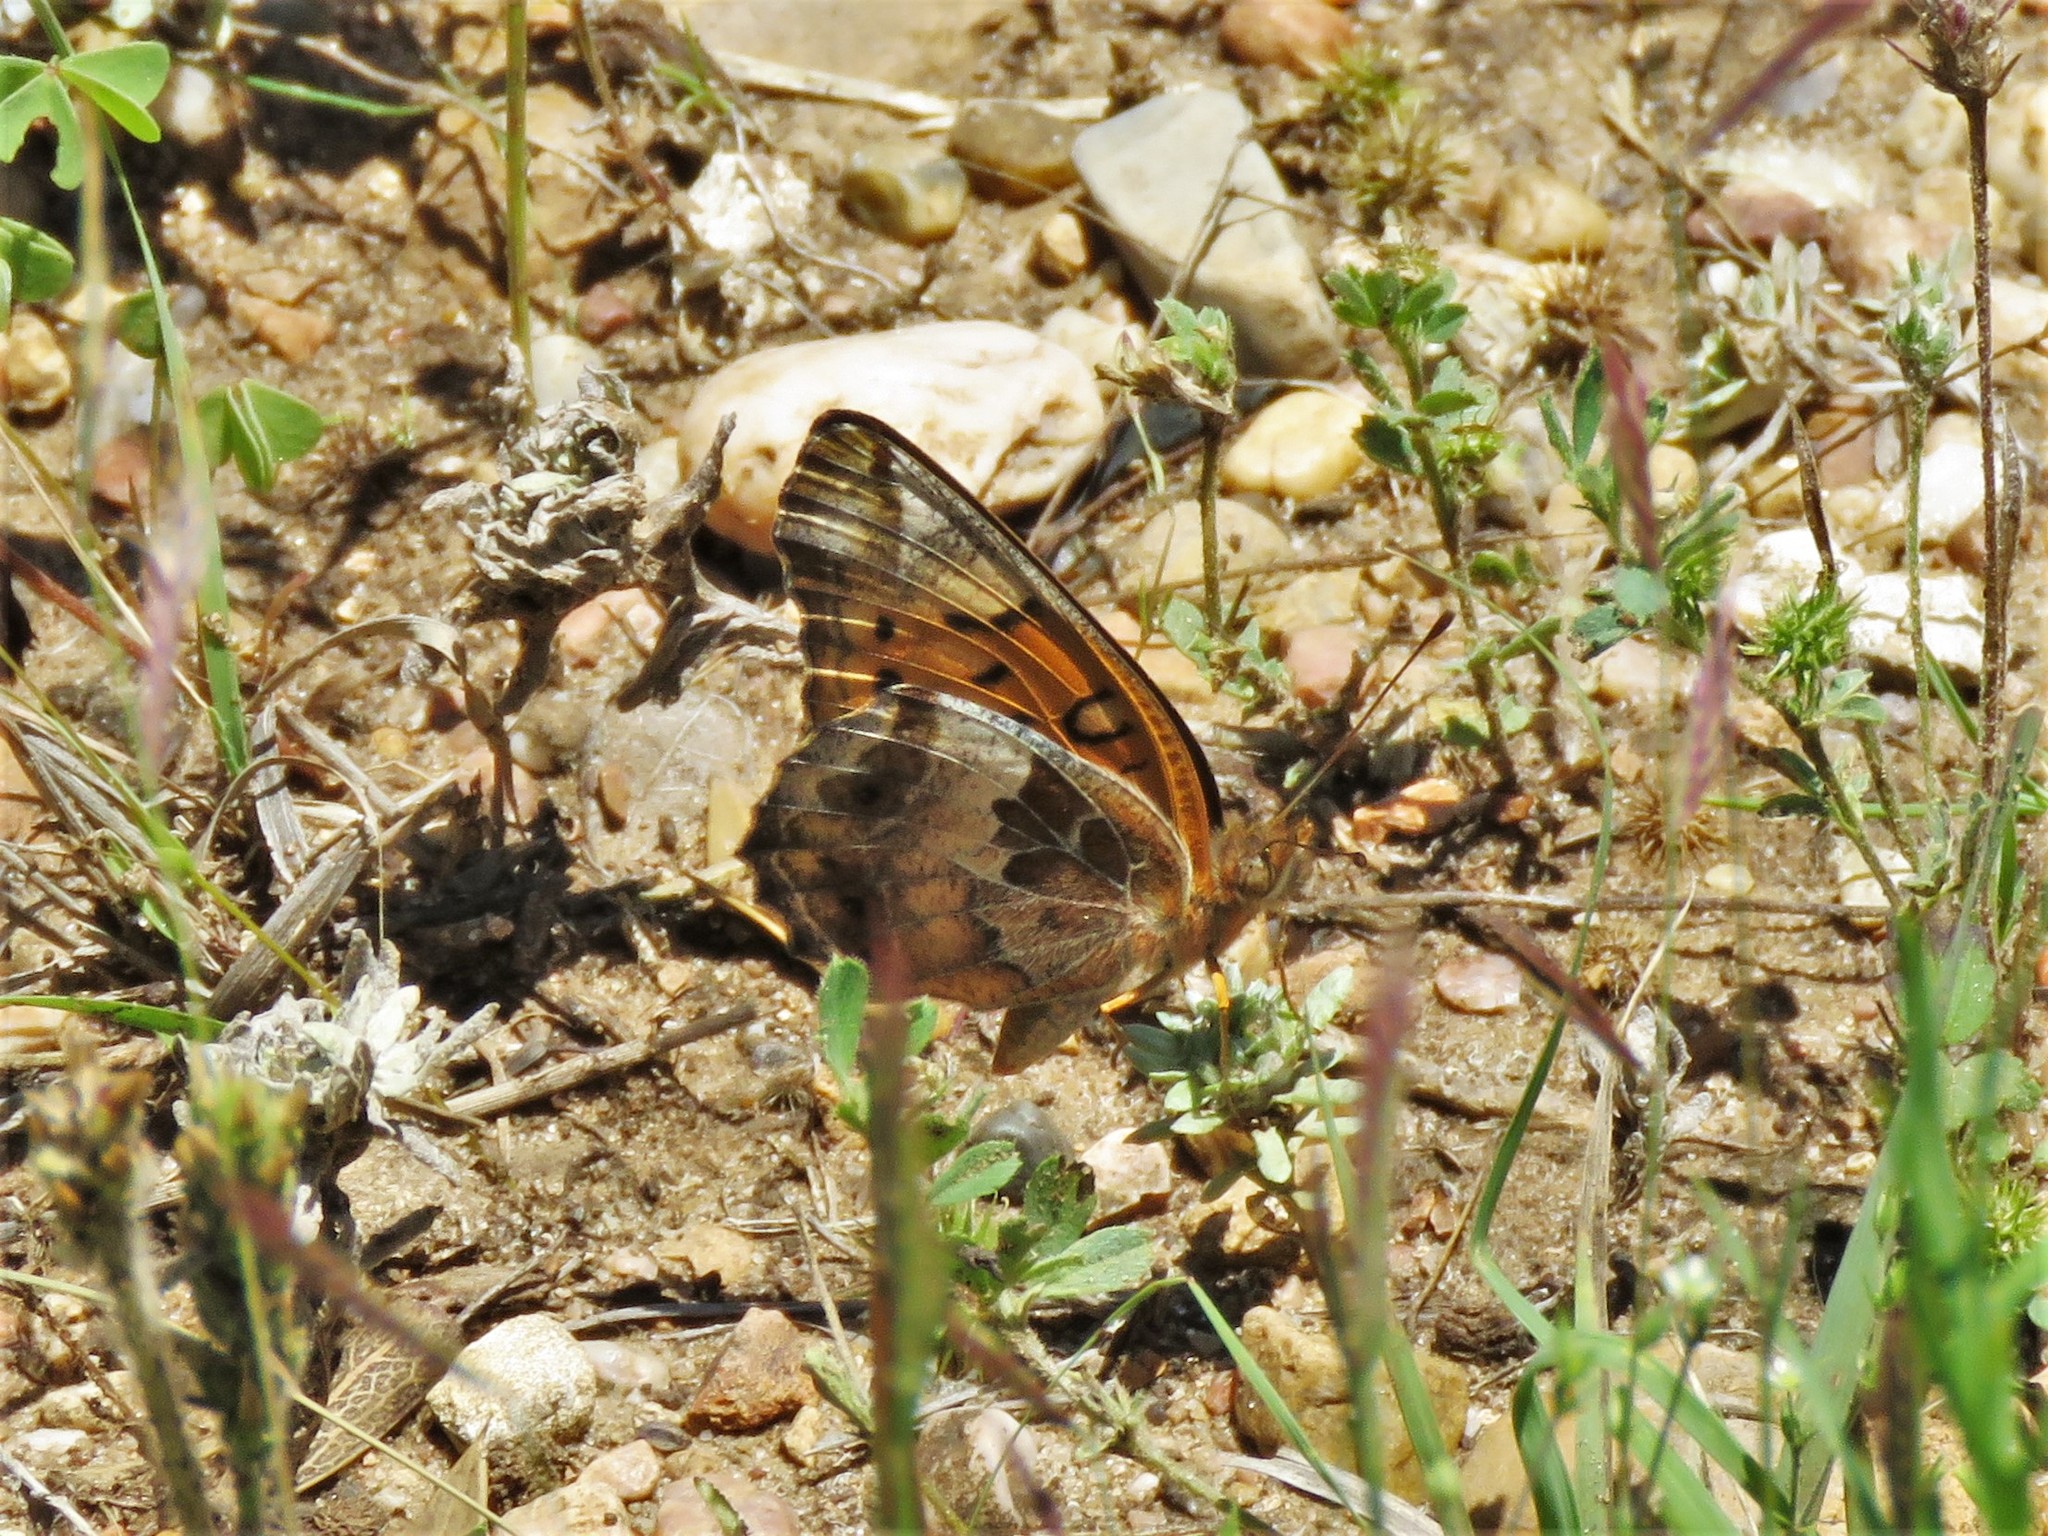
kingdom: Animalia
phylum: Arthropoda
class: Insecta
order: Lepidoptera
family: Nymphalidae
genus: Euptoieta
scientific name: Euptoieta claudia
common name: Variegated fritillary
